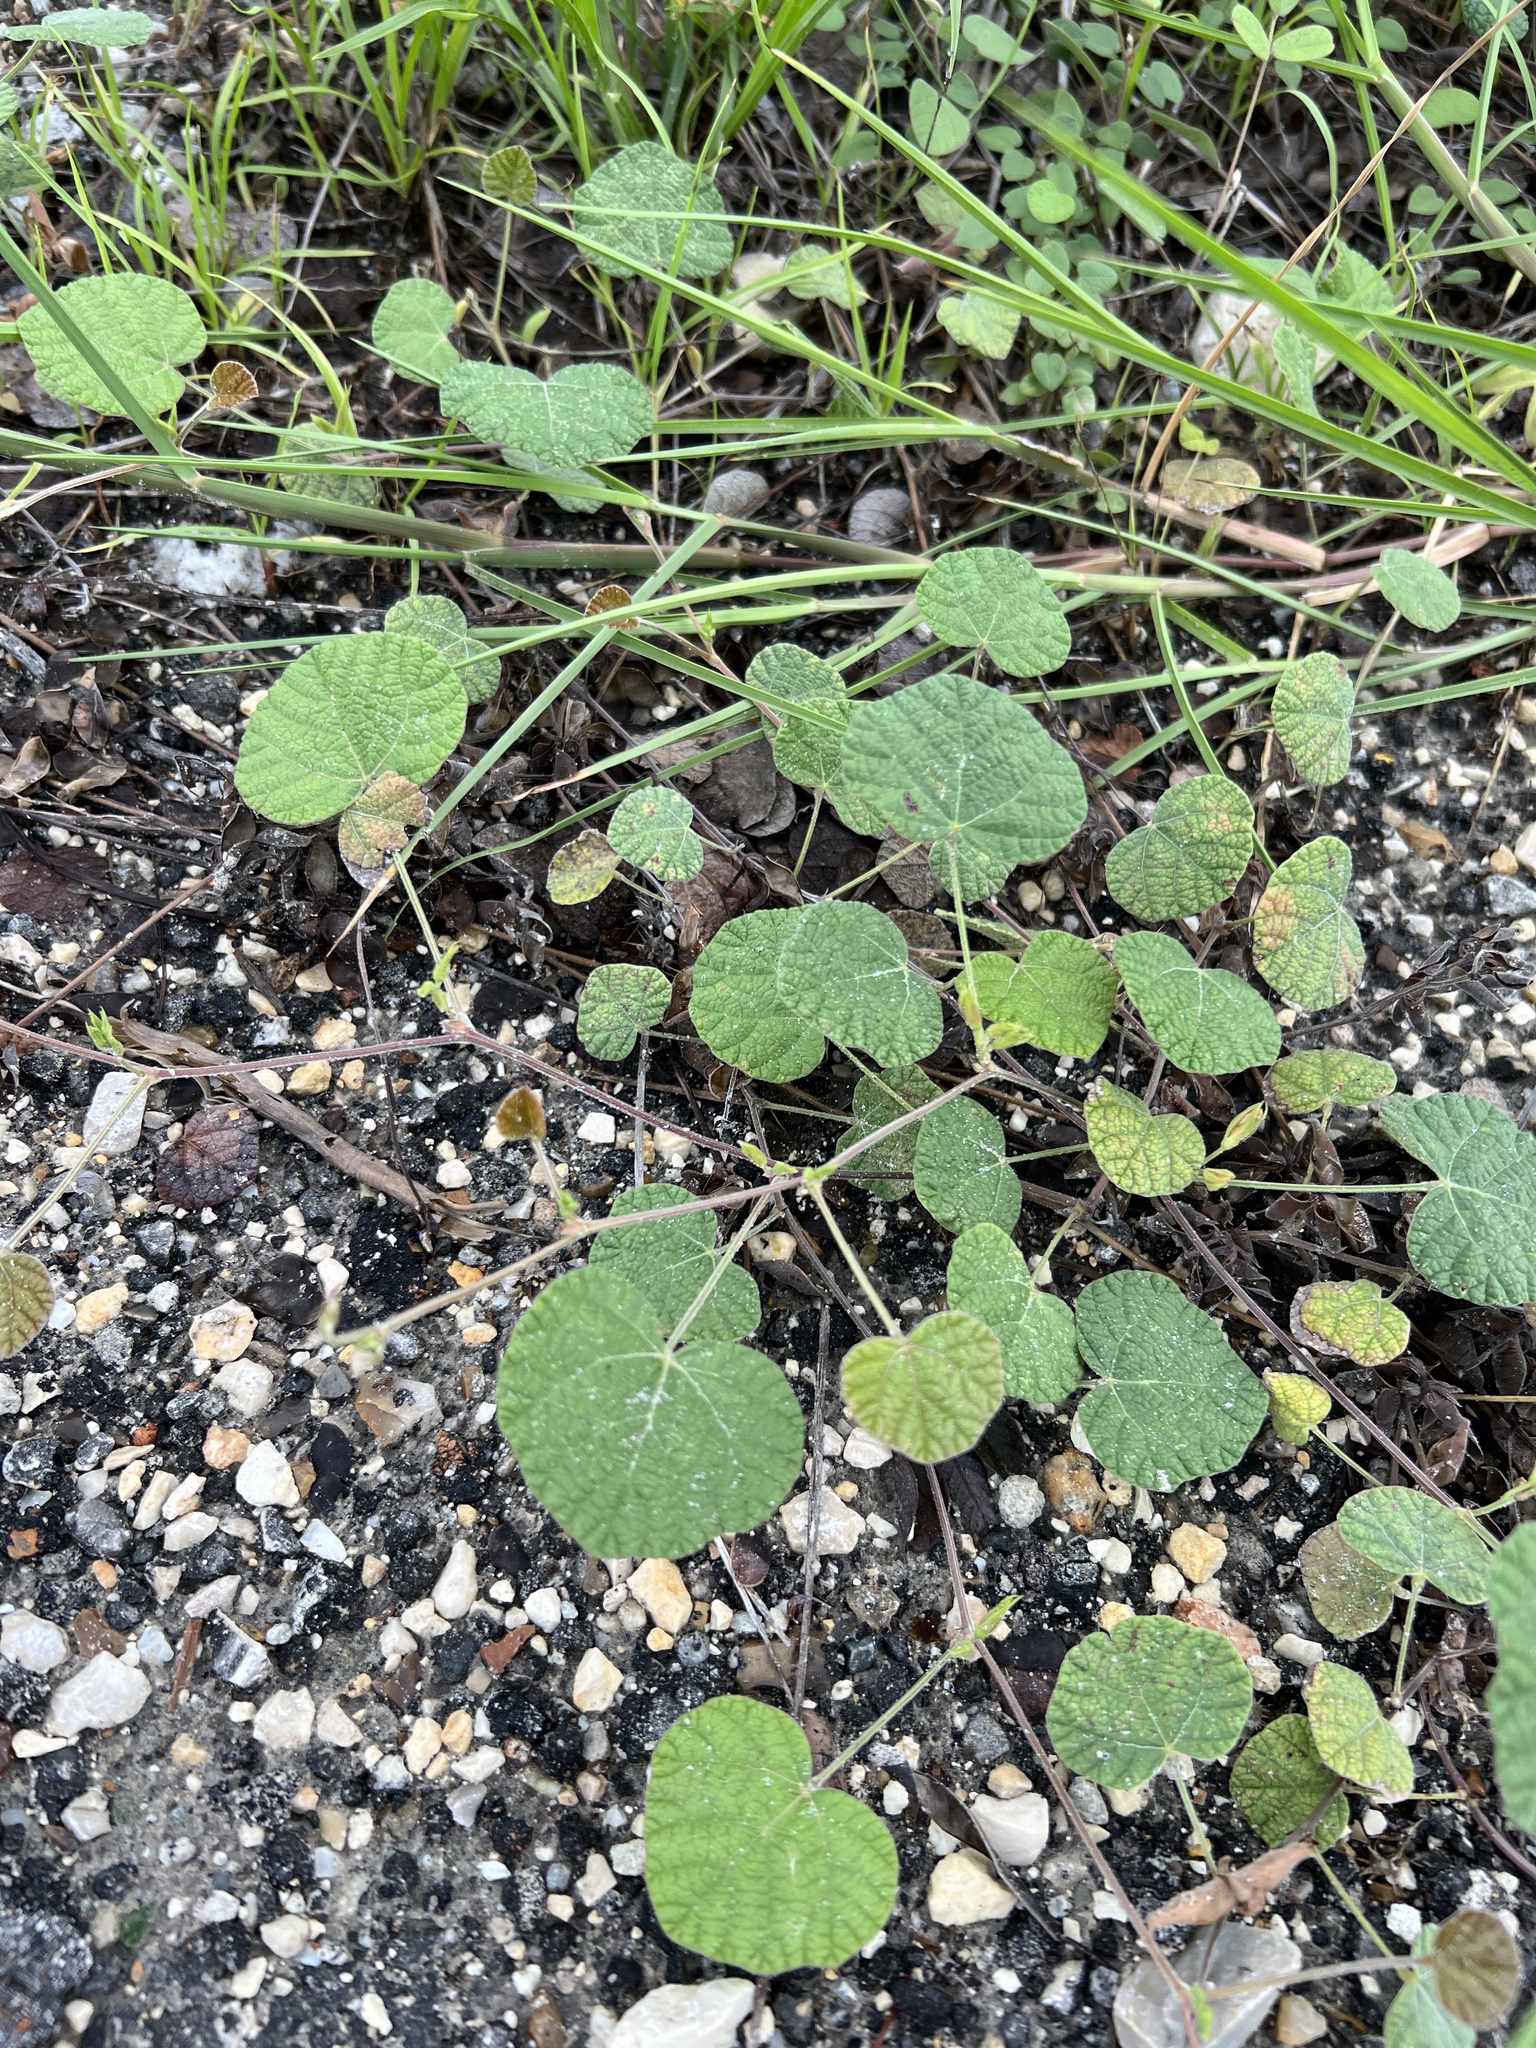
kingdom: Plantae
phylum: Tracheophyta
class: Magnoliopsida
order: Fabales
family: Fabaceae
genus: Rhynchosia
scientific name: Rhynchosia americana
